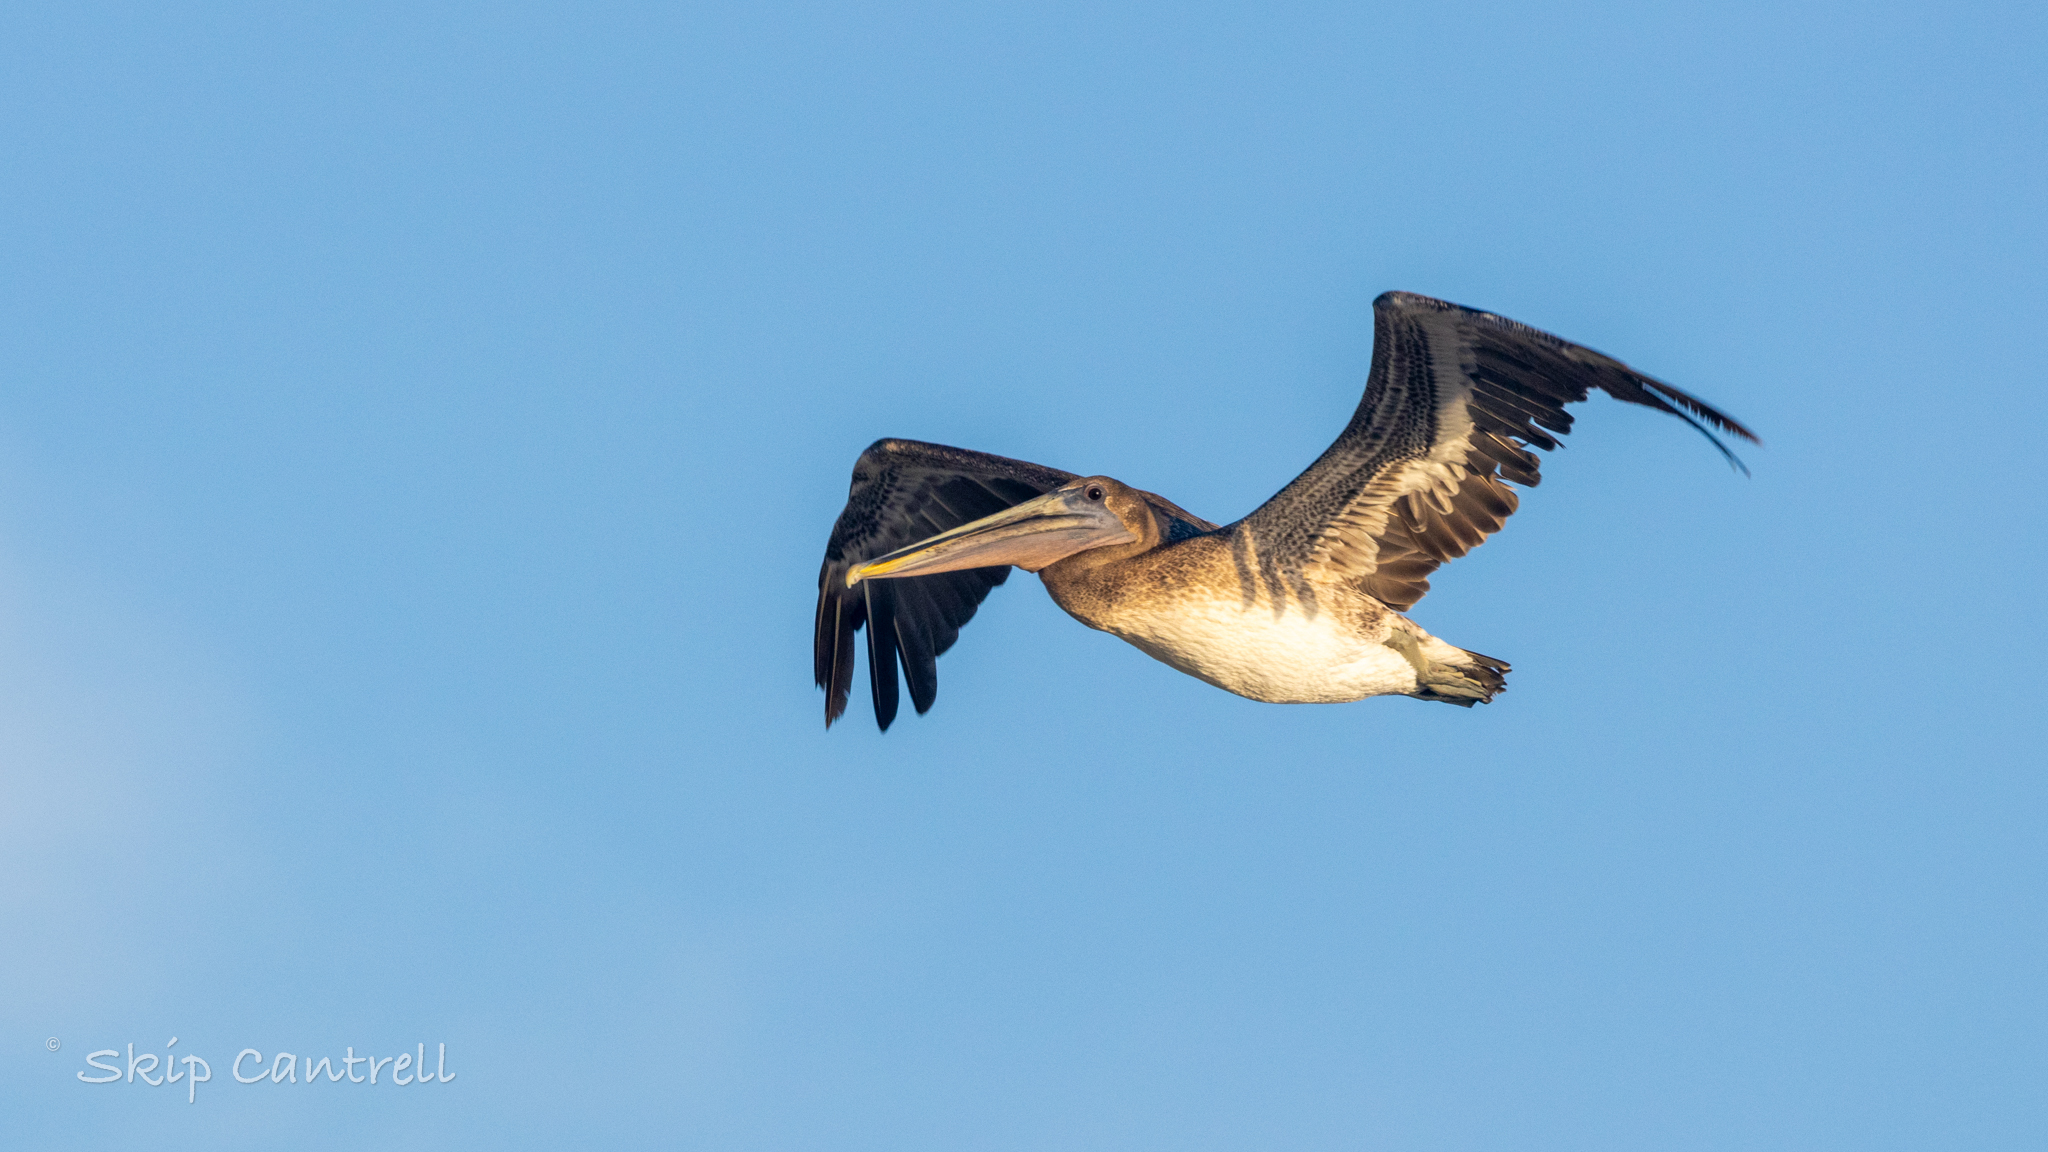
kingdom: Animalia
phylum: Chordata
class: Aves
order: Pelecaniformes
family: Pelecanidae
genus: Pelecanus
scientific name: Pelecanus occidentalis
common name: Brown pelican
